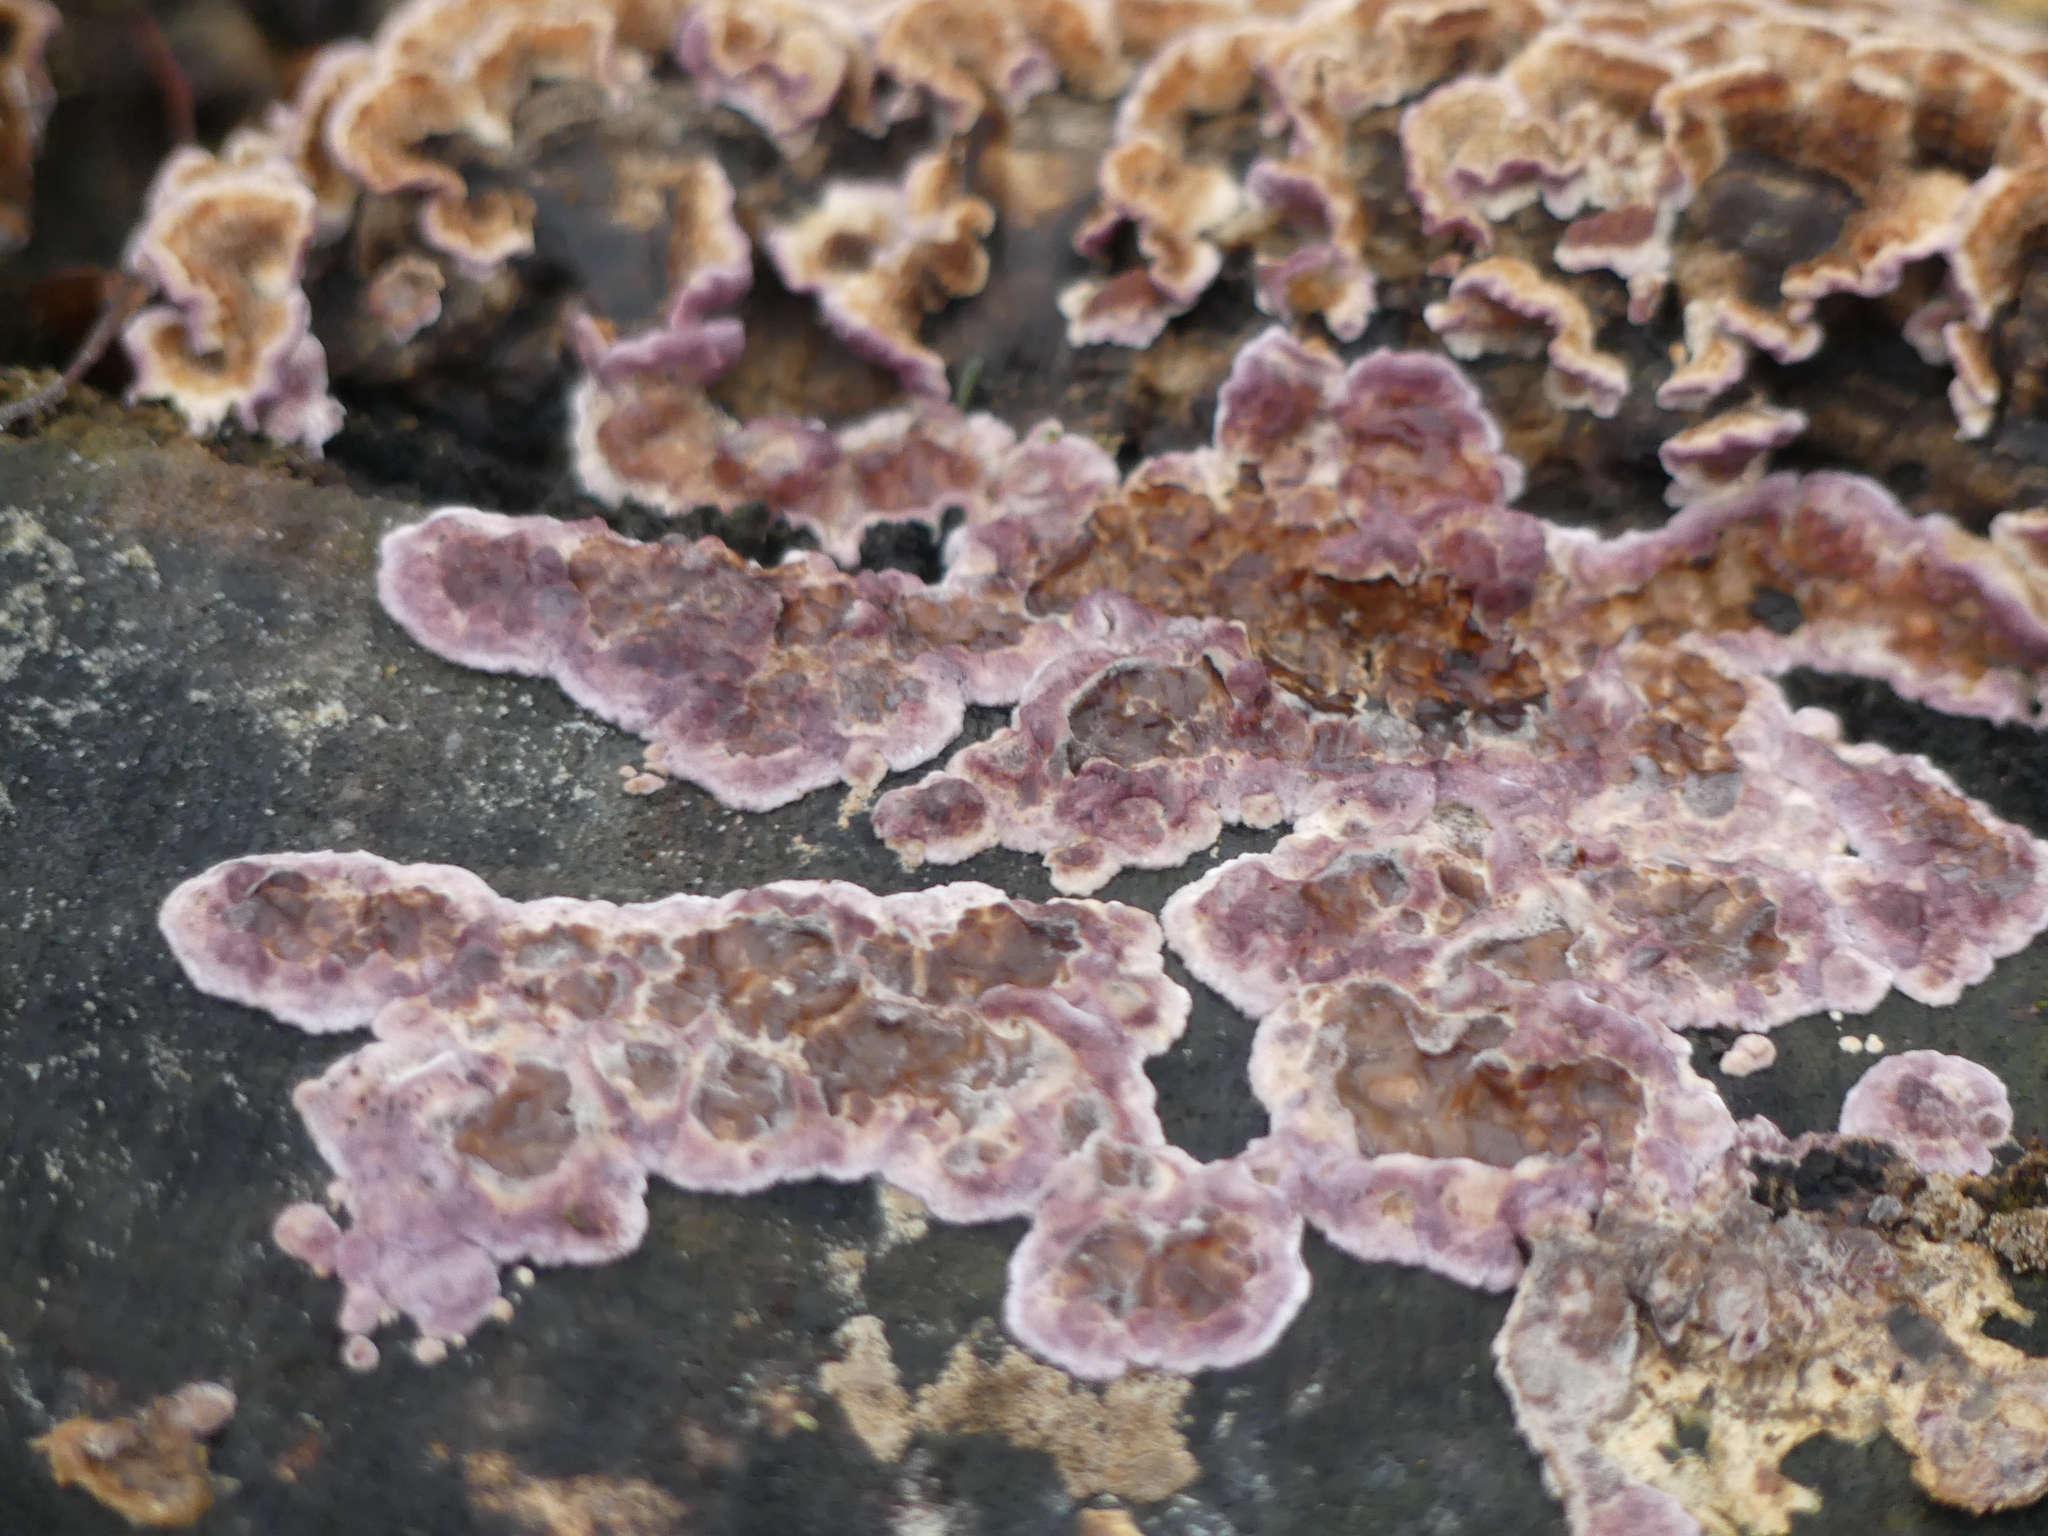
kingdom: Fungi
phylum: Basidiomycota
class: Agaricomycetes
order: Agaricales
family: Cyphellaceae
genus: Chondrostereum
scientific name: Chondrostereum purpureum
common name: Silver leaf disease
